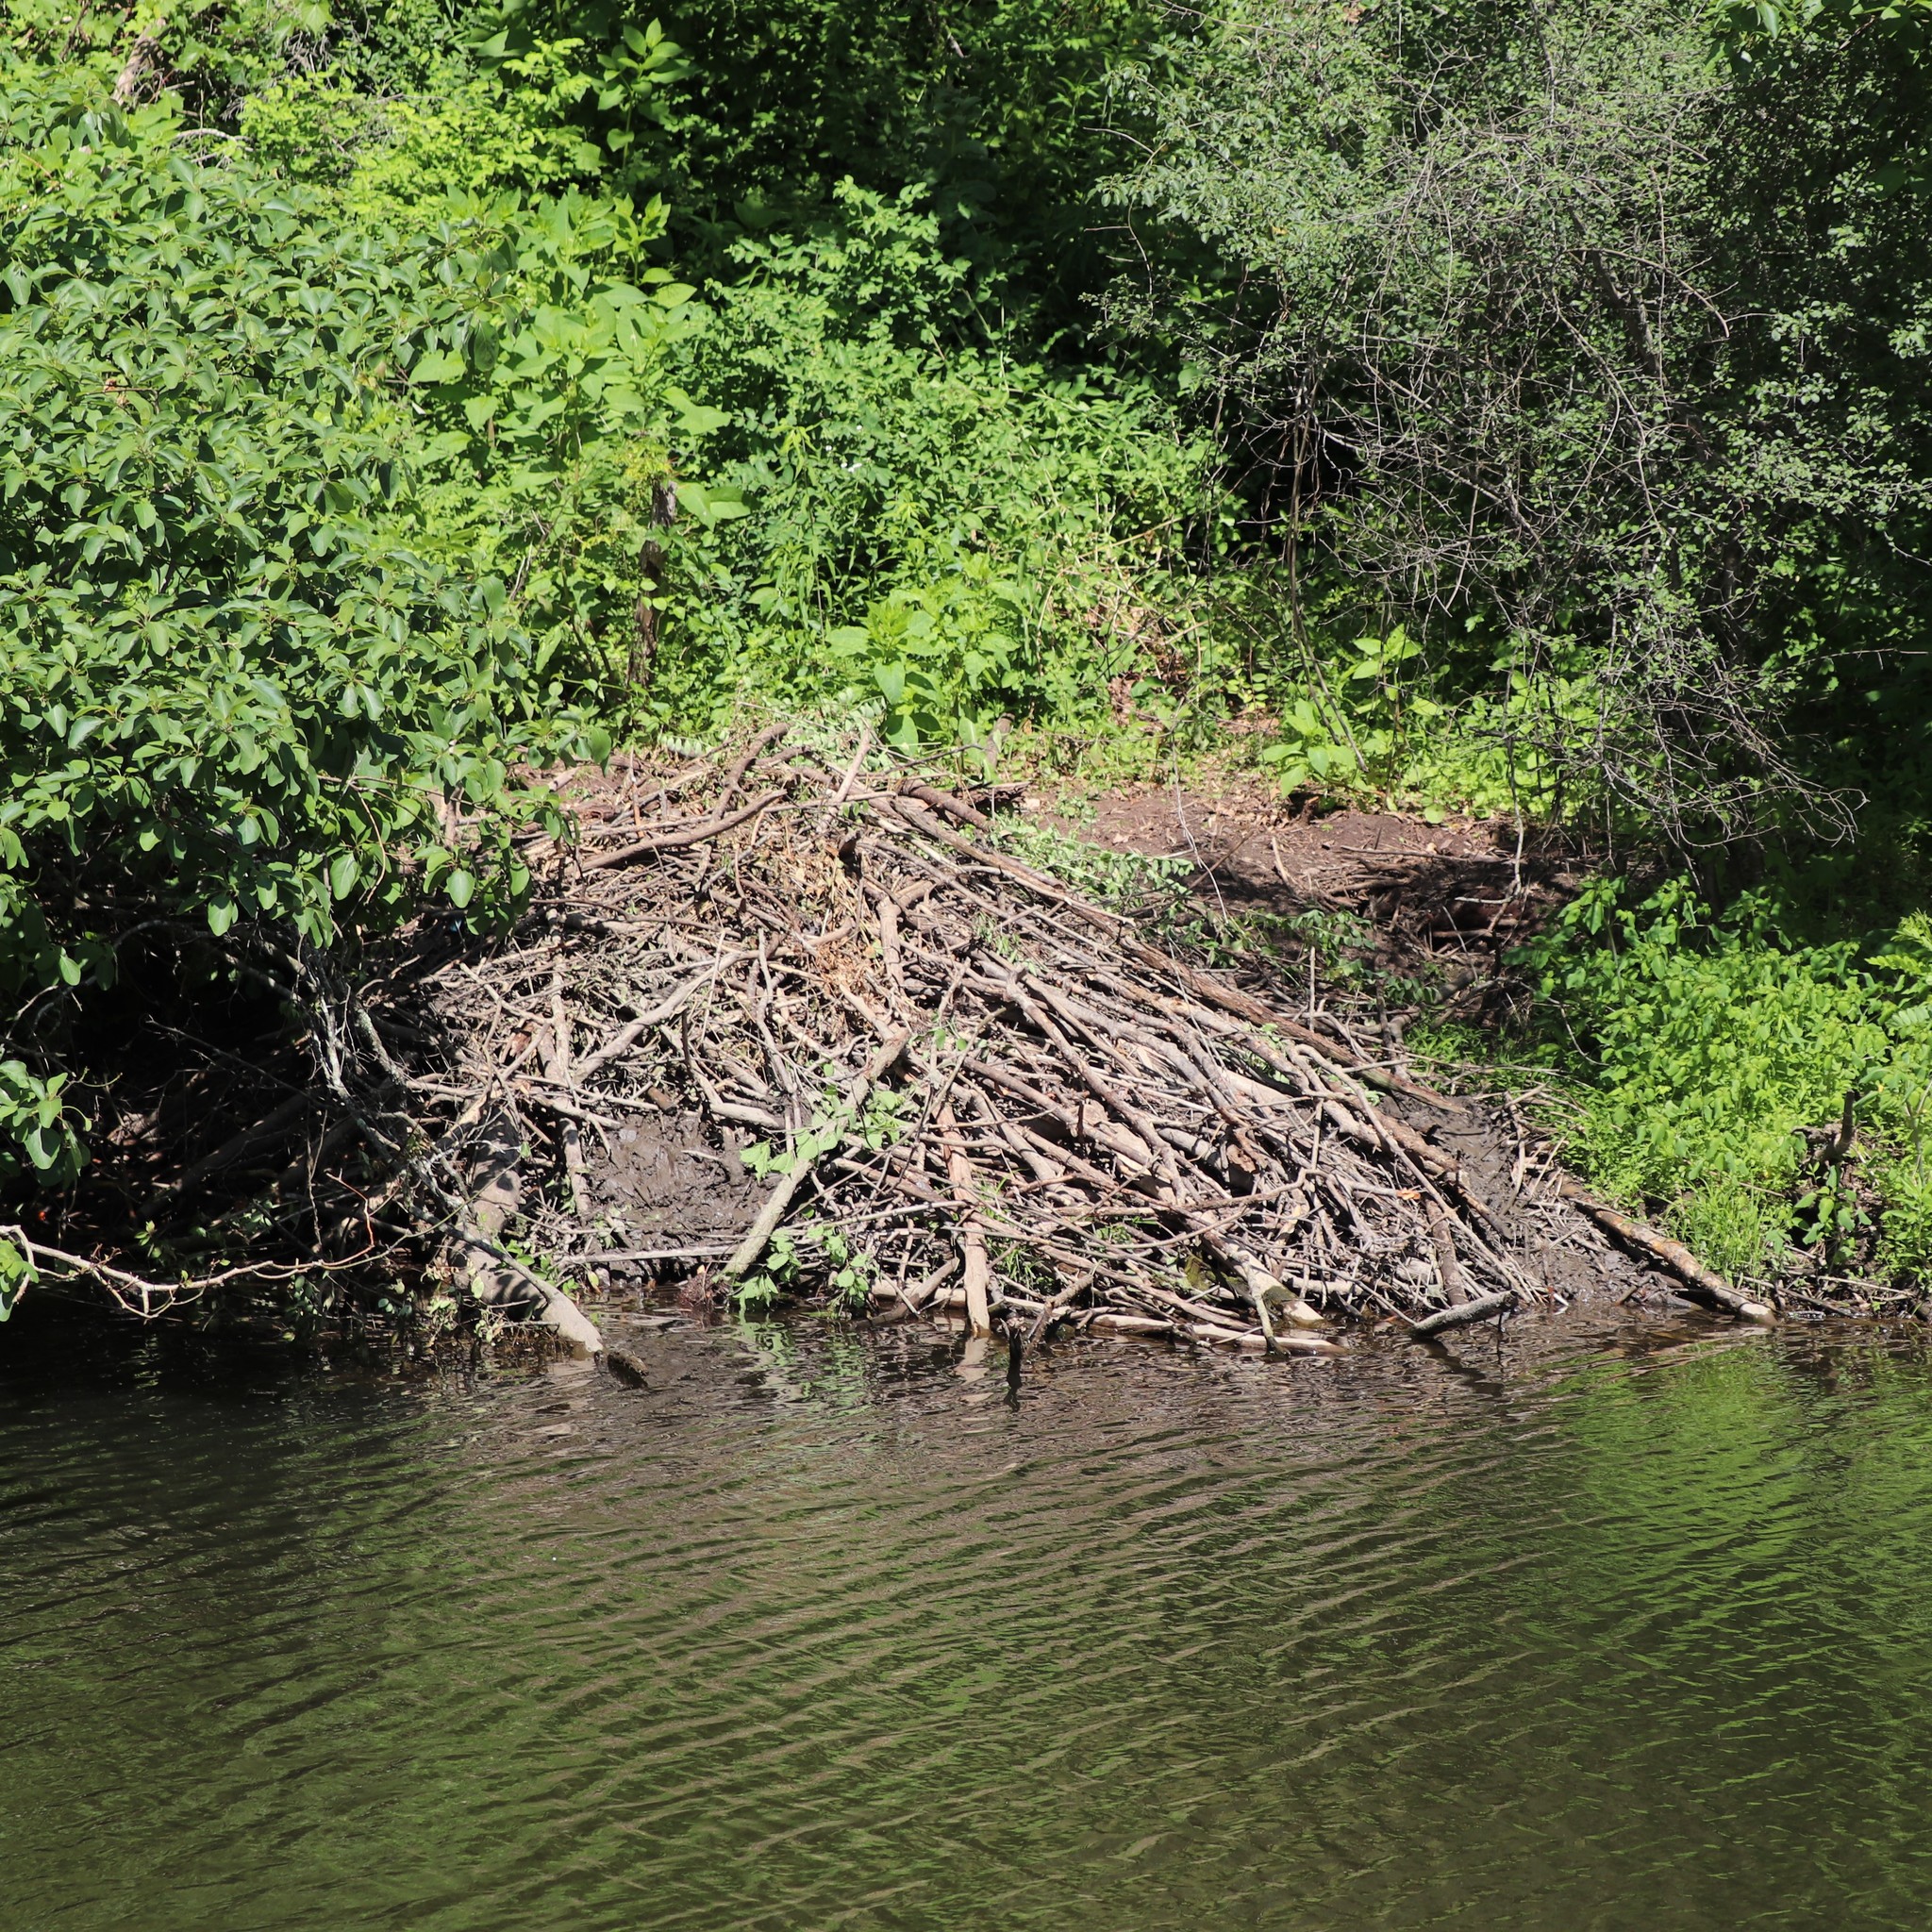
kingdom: Animalia
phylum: Chordata
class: Mammalia
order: Rodentia
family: Castoridae
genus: Castor
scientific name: Castor canadensis
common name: American beaver
